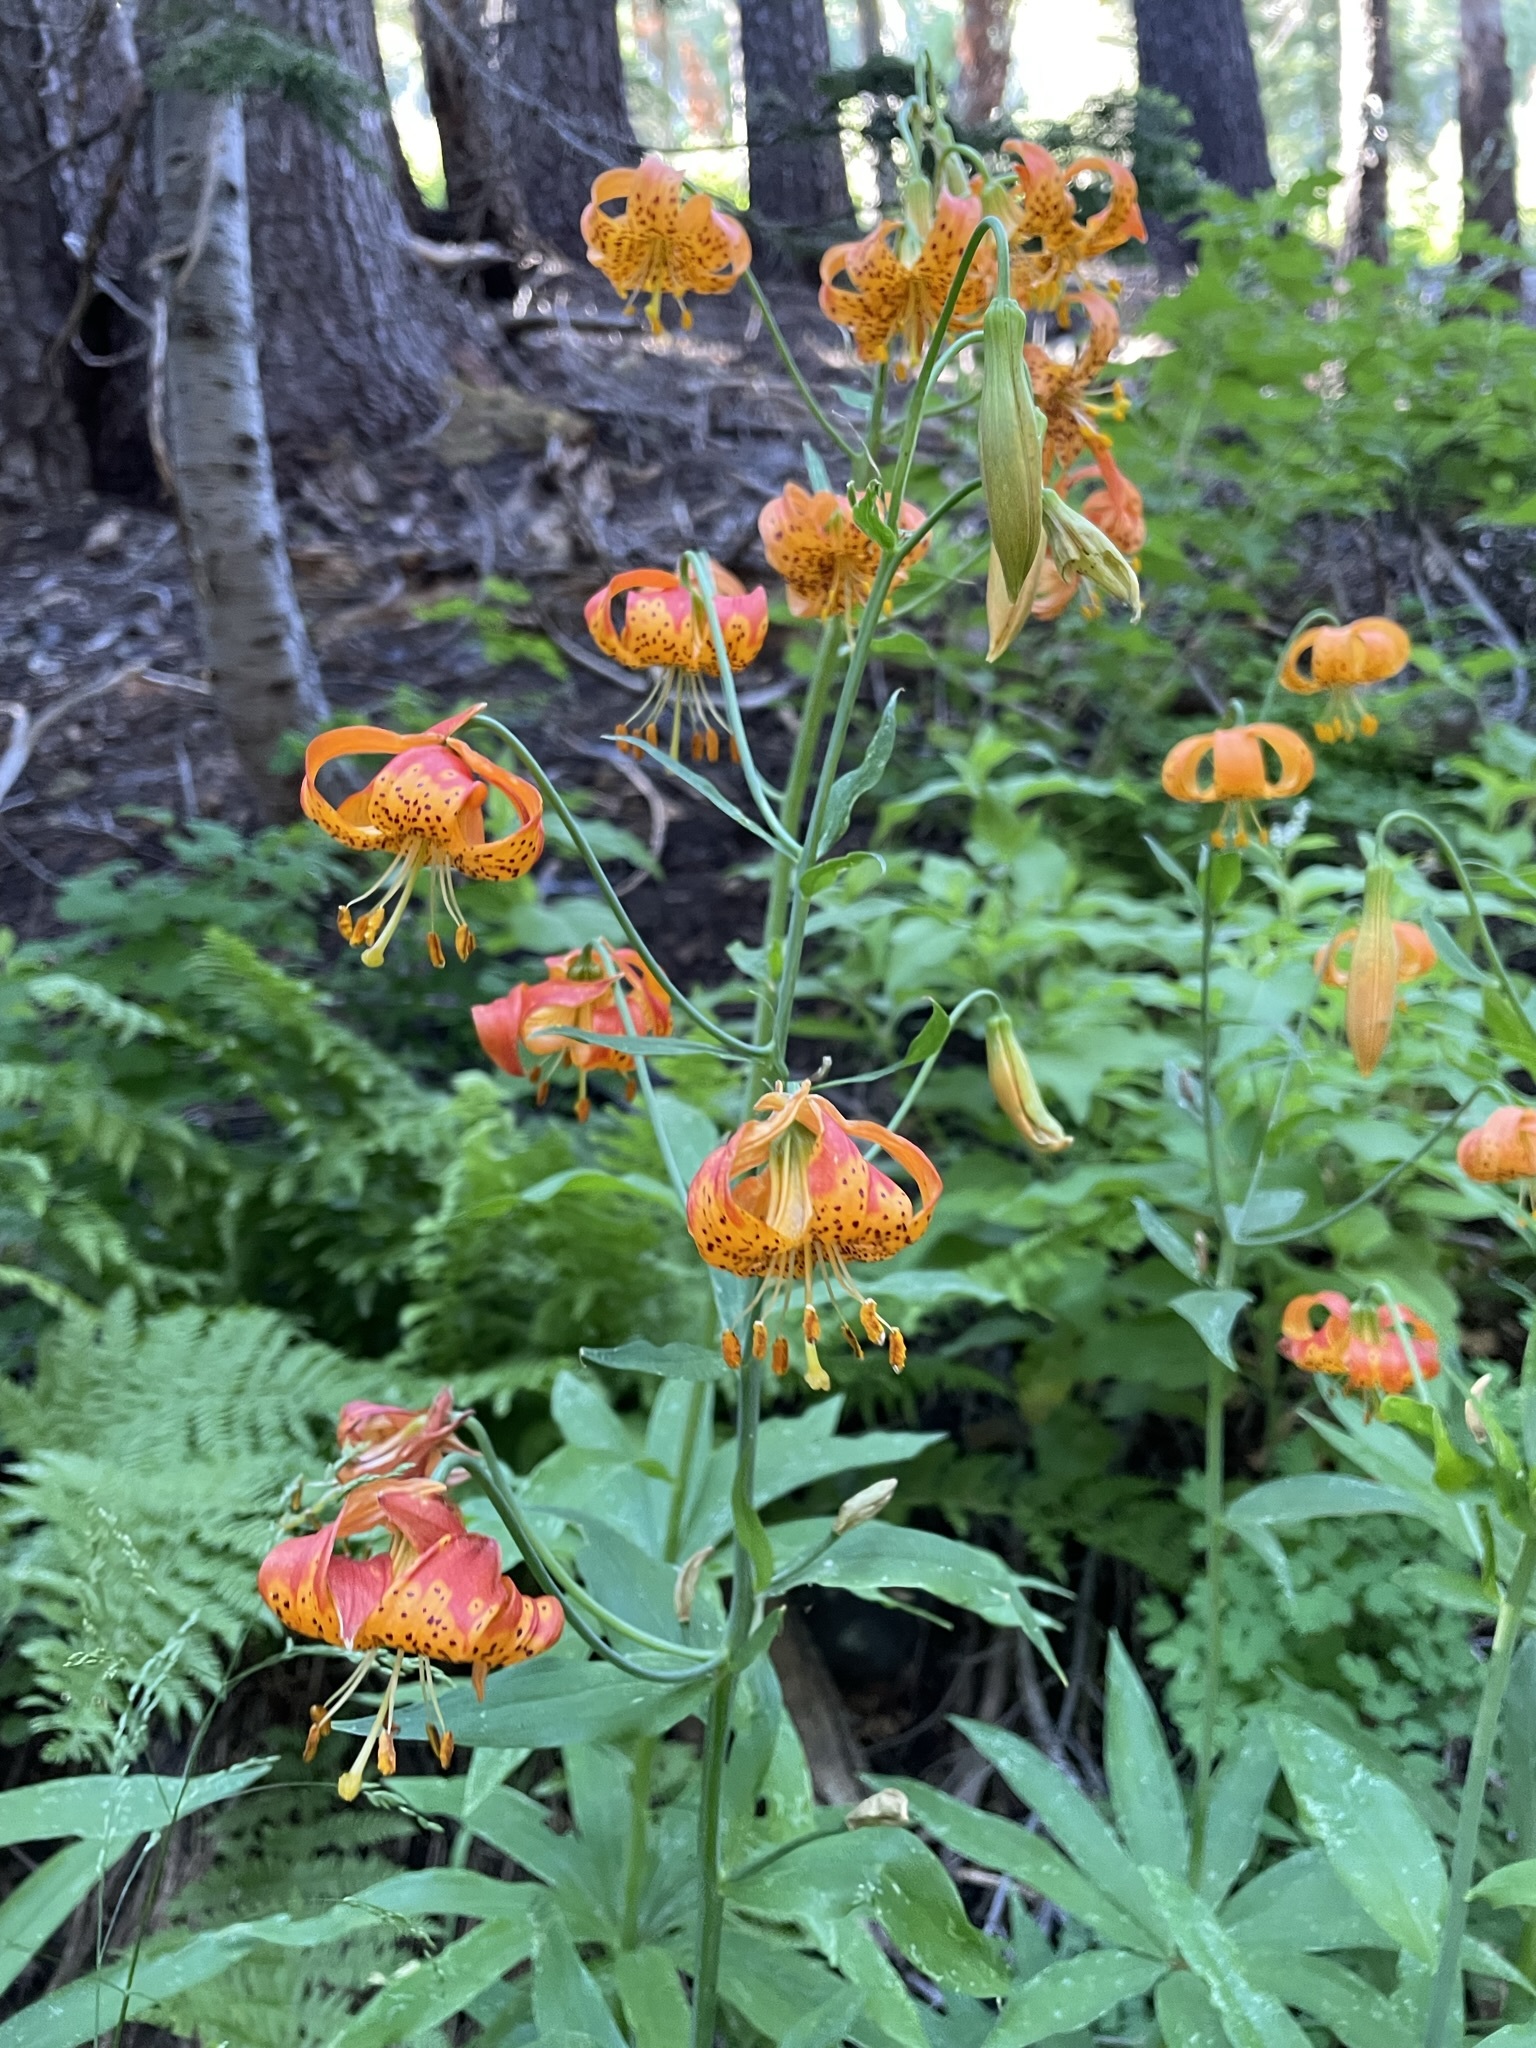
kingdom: Plantae
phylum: Tracheophyta
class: Liliopsida
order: Liliales
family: Liliaceae
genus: Lilium
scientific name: Lilium pardalinum
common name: Panther lily
